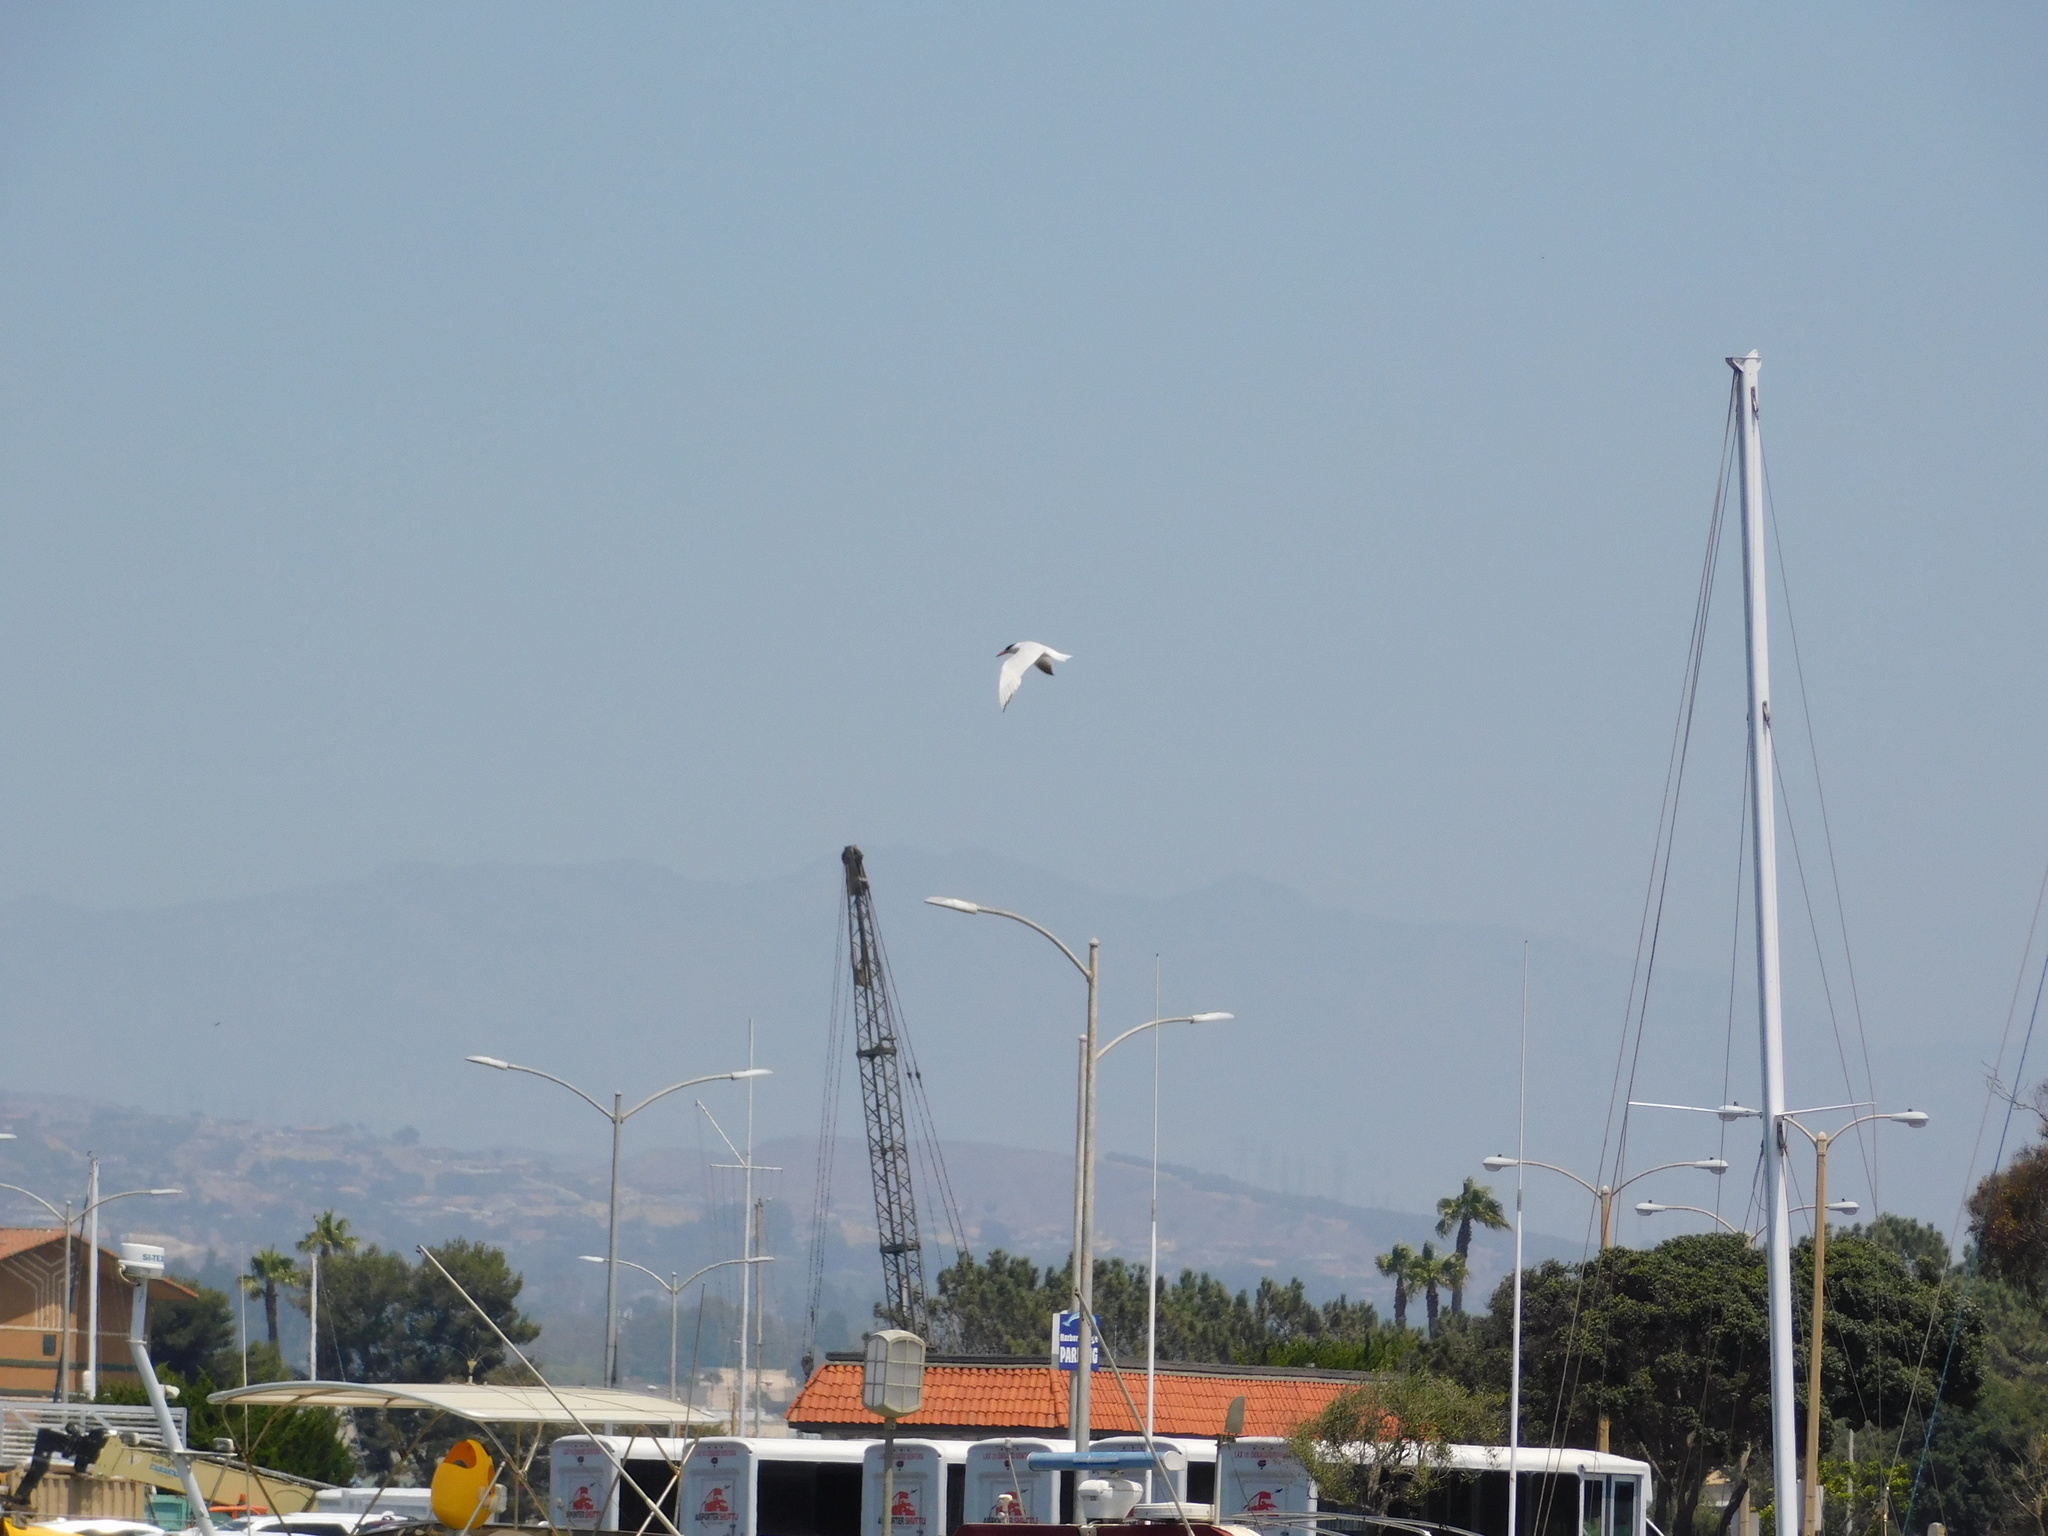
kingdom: Animalia
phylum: Chordata
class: Aves
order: Charadriiformes
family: Laridae
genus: Hydroprogne
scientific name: Hydroprogne caspia
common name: Caspian tern
